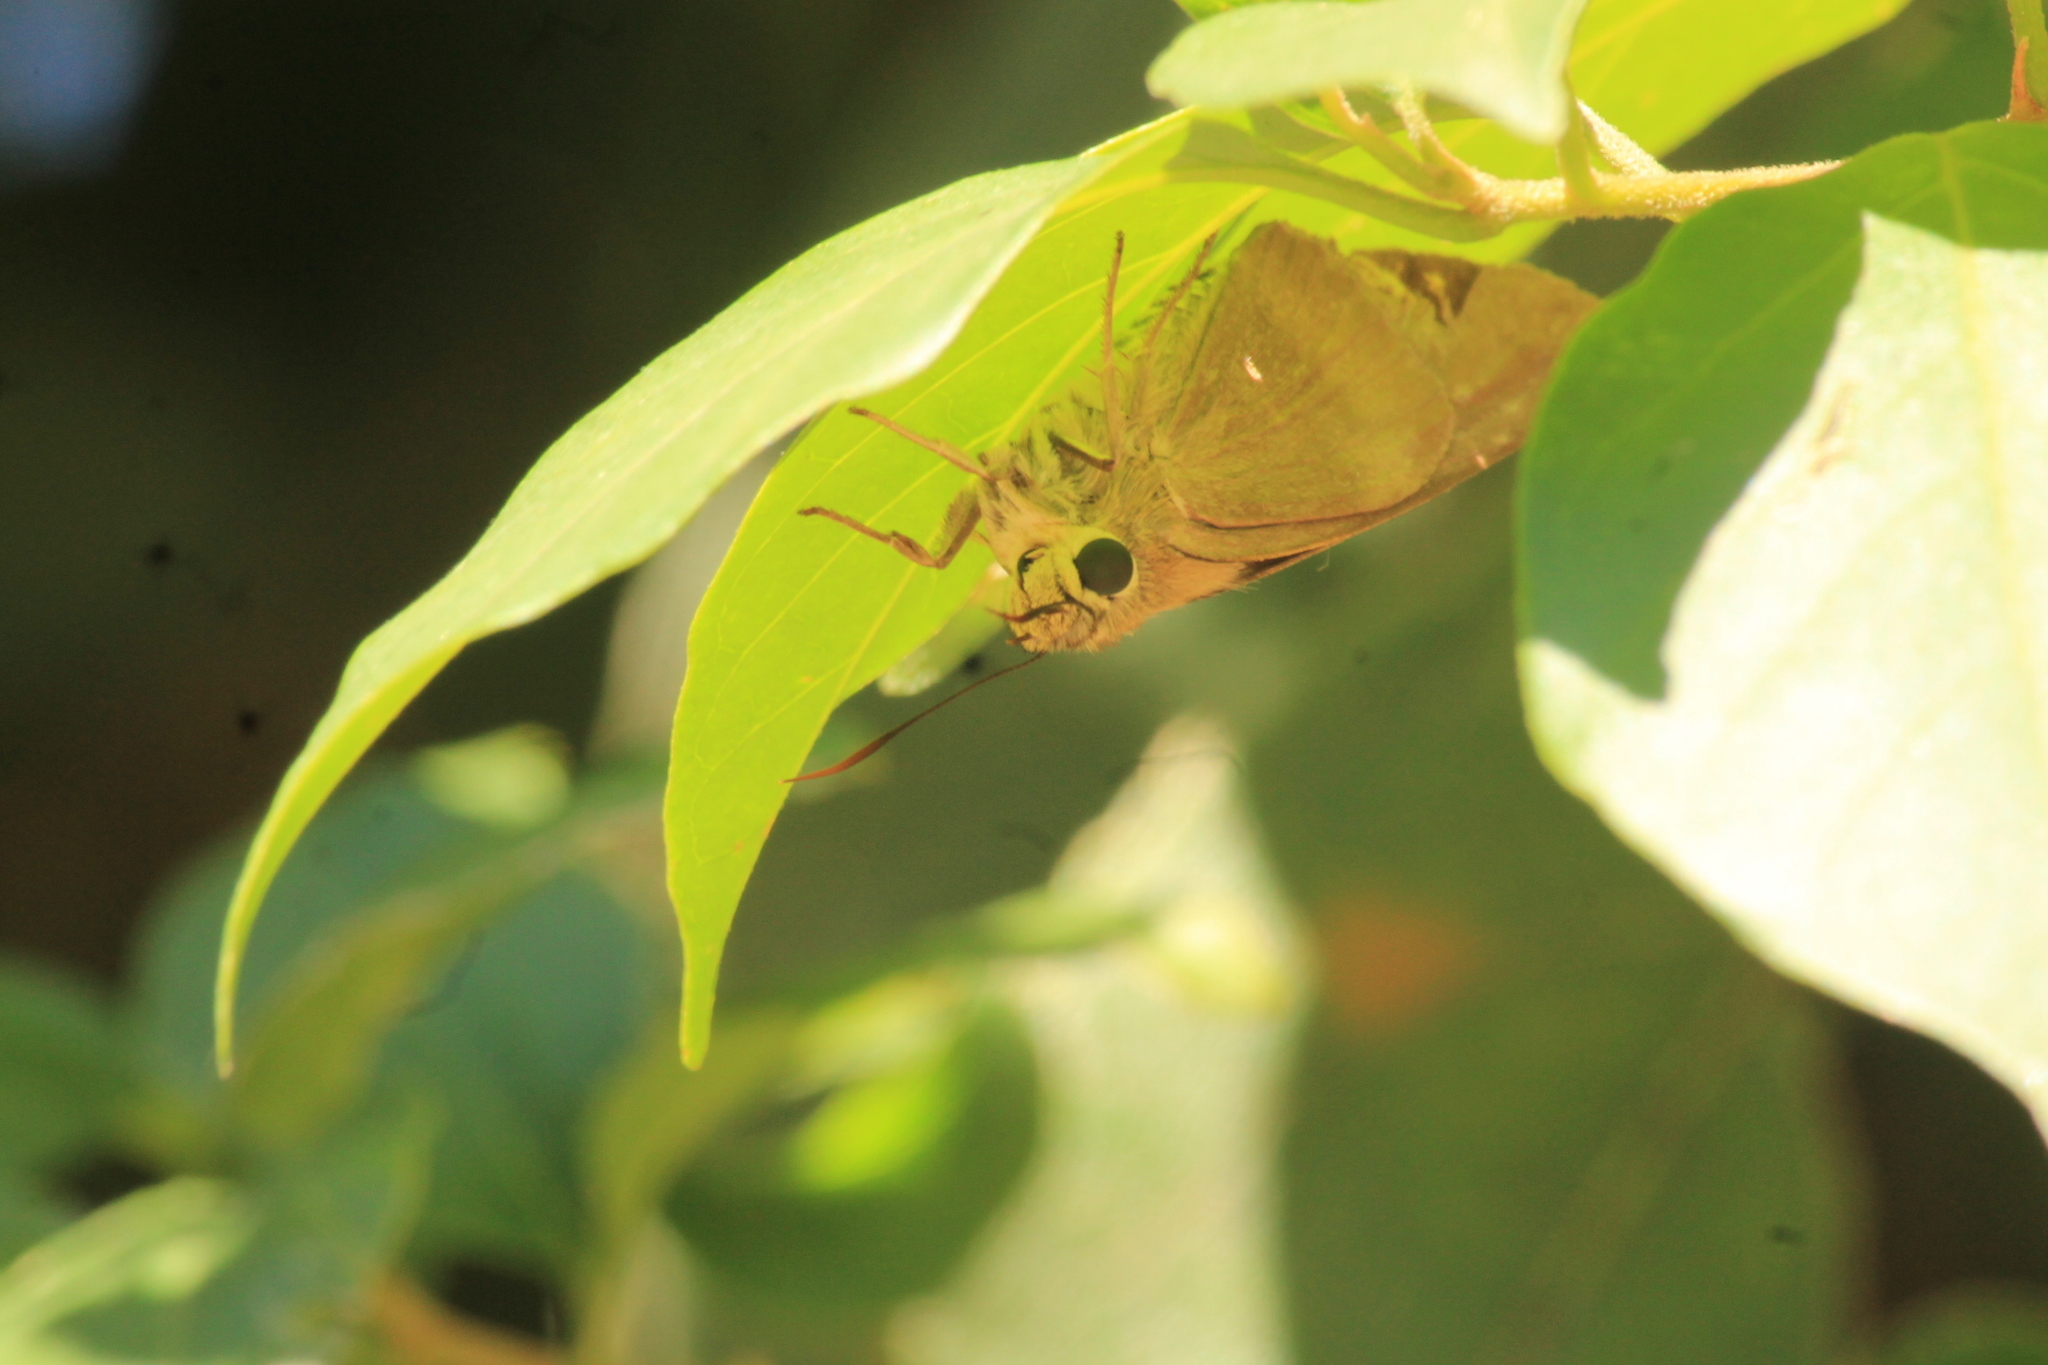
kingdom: Animalia
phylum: Arthropoda
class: Insecta
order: Lepidoptera
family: Hesperiidae
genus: Badamia
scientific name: Badamia exclamationis
